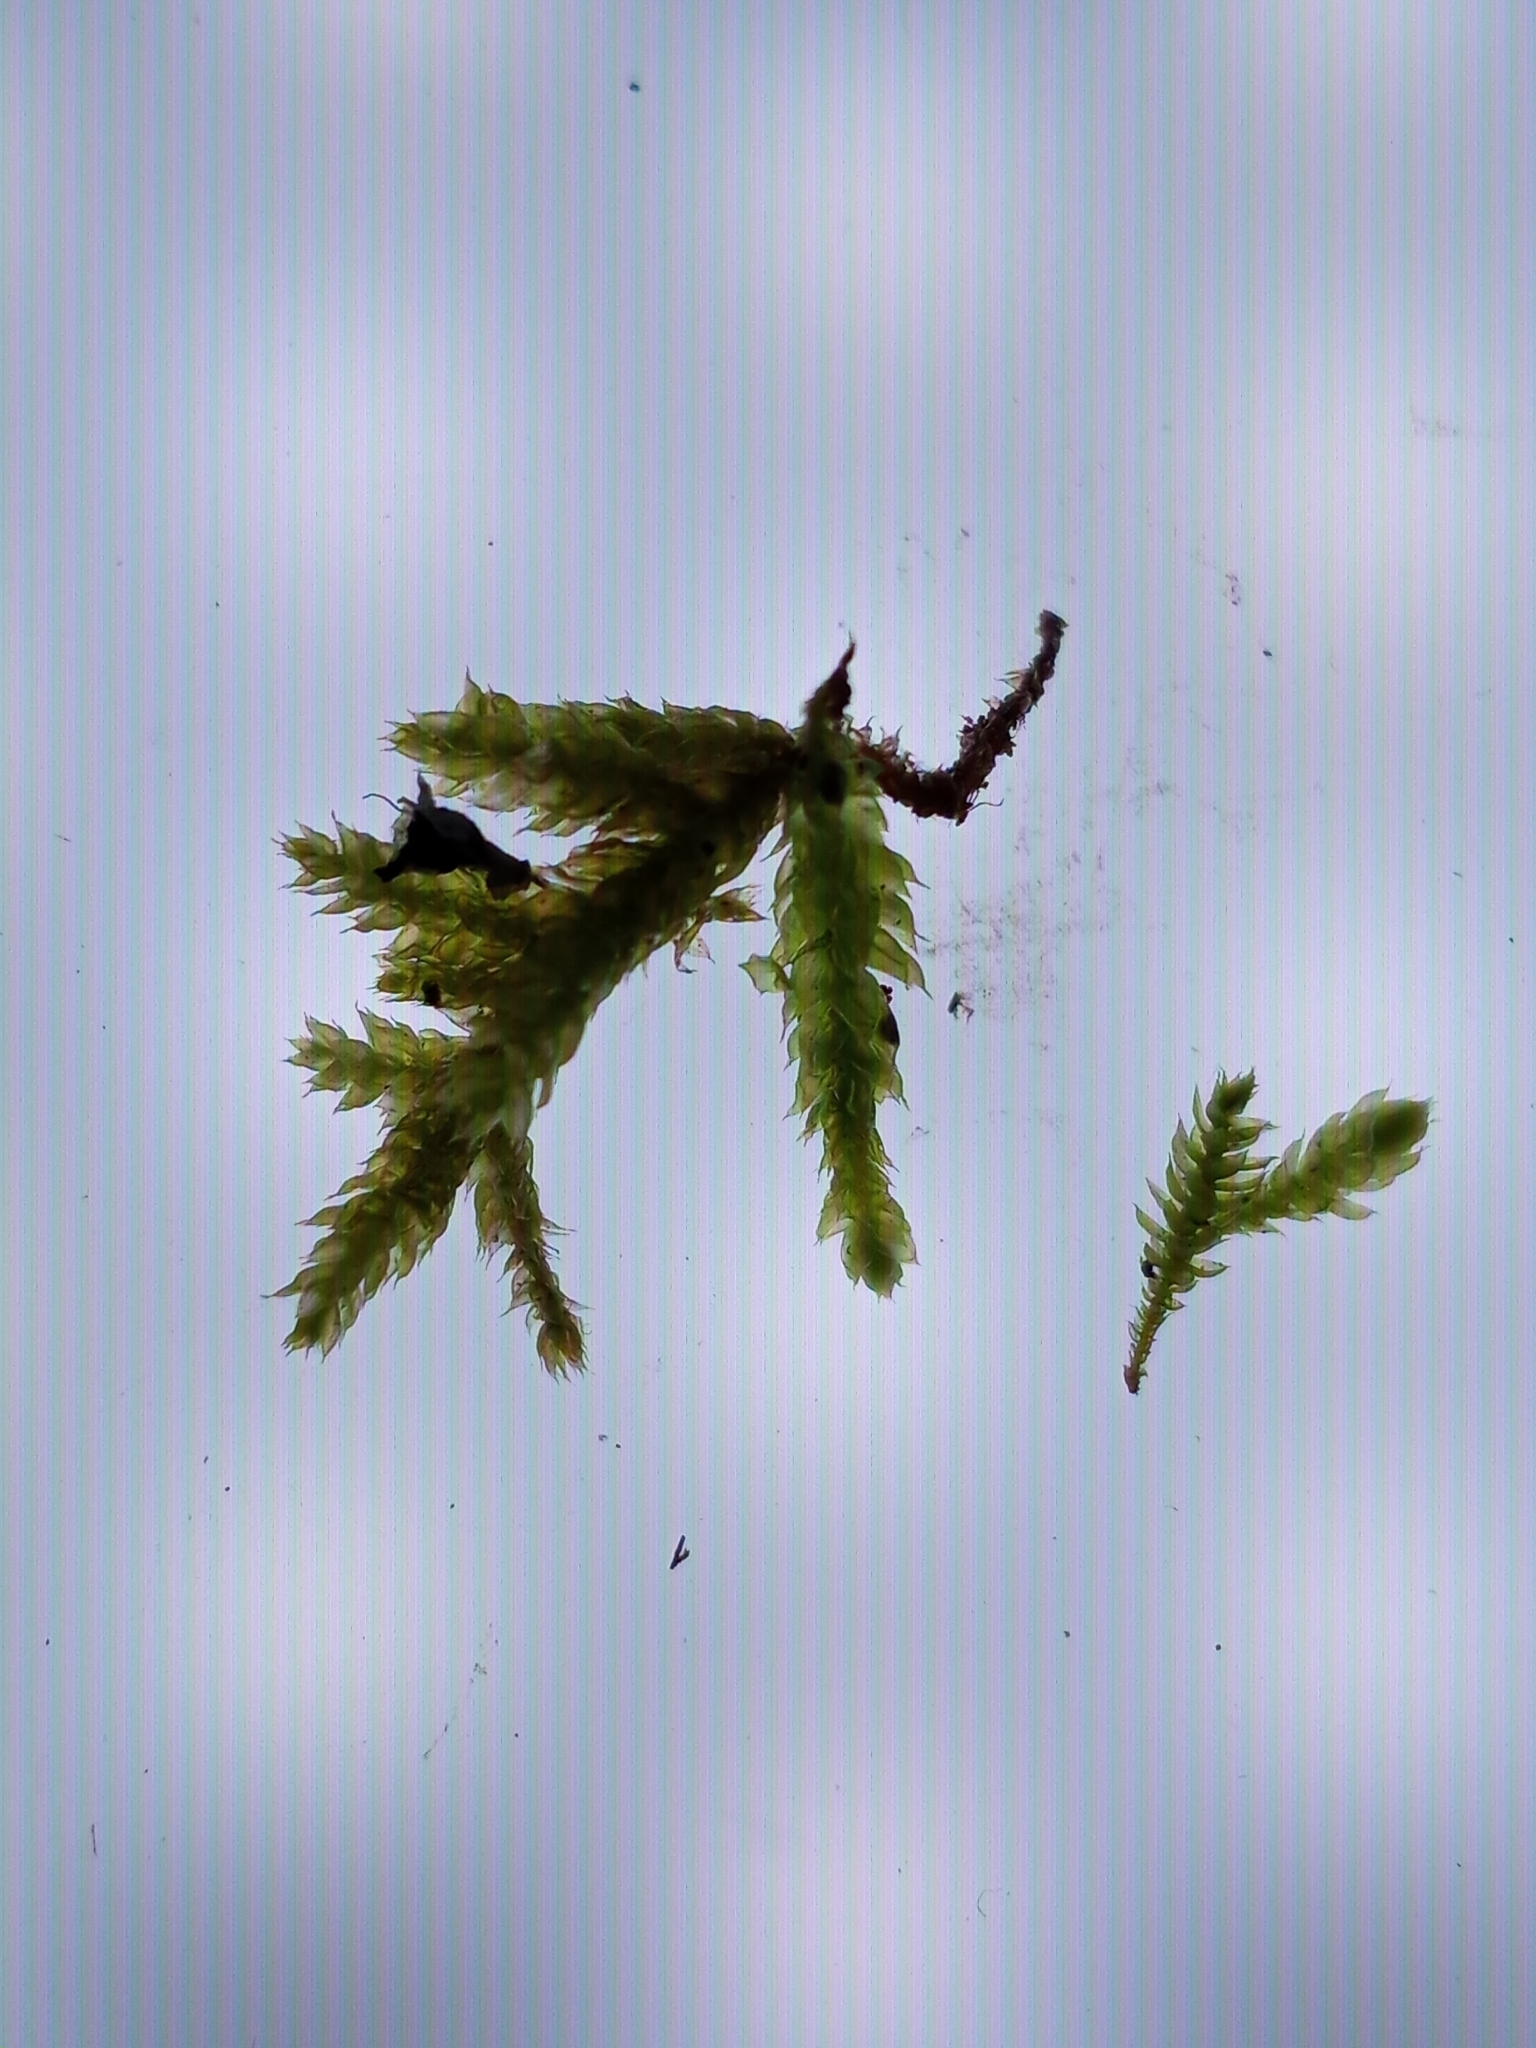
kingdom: Plantae
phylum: Bryophyta
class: Bryopsida
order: Hypnales
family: Brachytheciaceae
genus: Bryoandersonia
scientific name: Bryoandersonia illecebra
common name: Spoon-leaved moss
